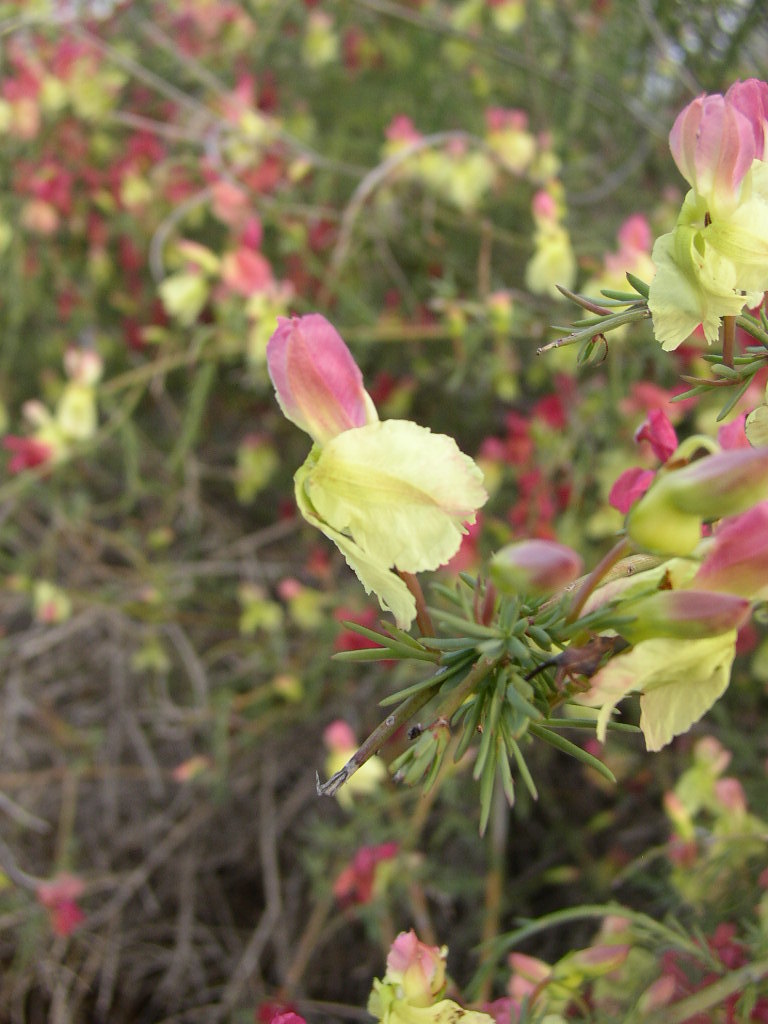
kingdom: Plantae
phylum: Tracheophyta
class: Magnoliopsida
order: Asterales
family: Goodeniaceae
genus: Lechenaultia
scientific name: Lechenaultia linarioides
